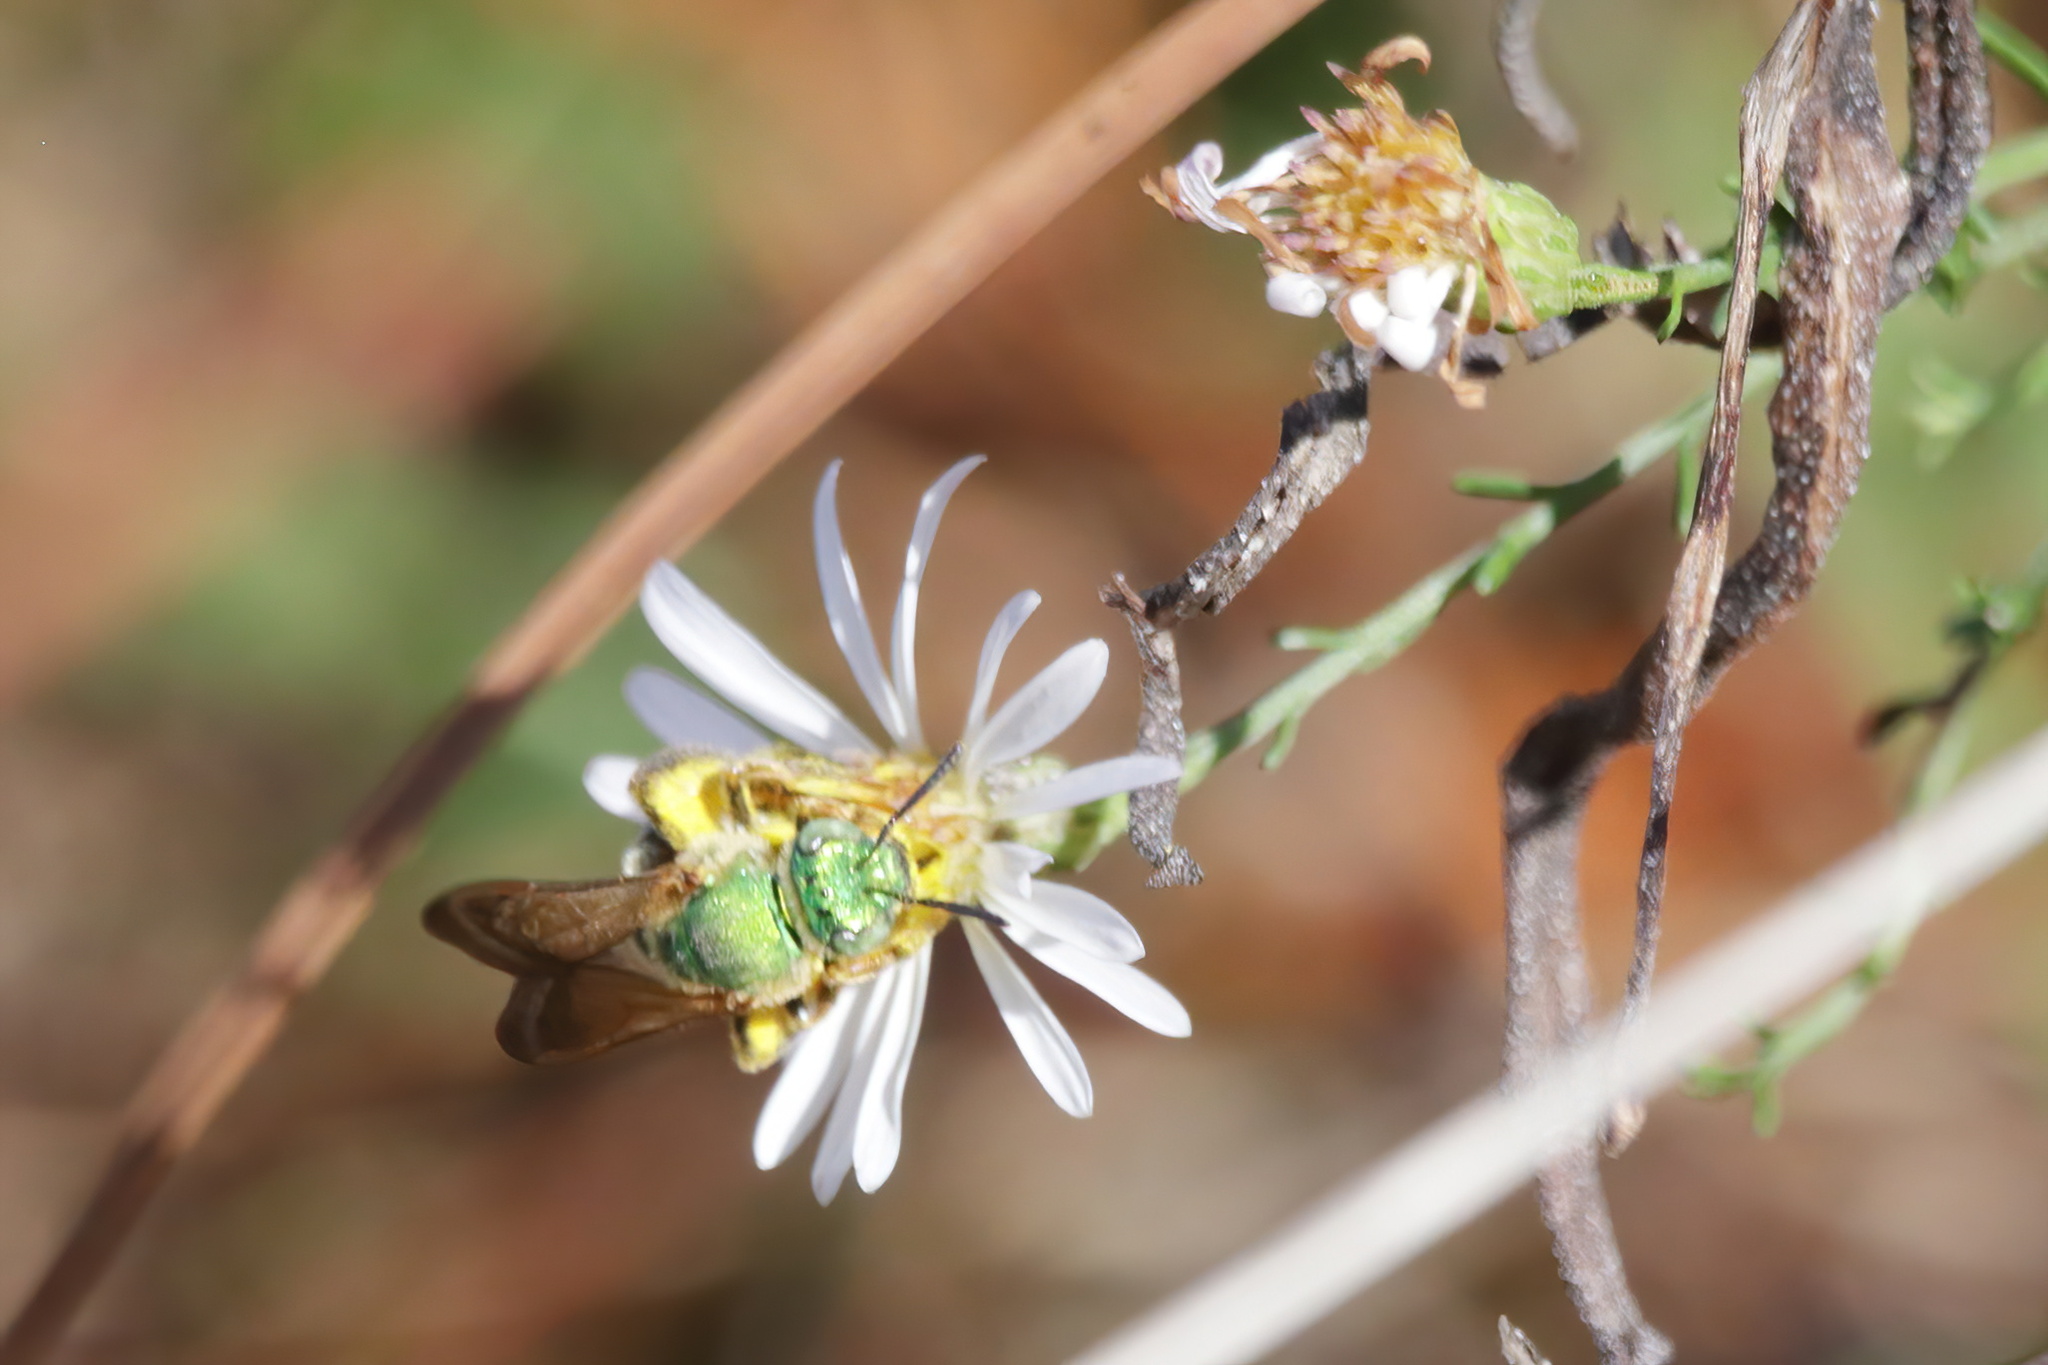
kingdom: Animalia
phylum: Arthropoda
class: Insecta
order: Hymenoptera
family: Halictidae
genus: Agapostemon
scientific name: Agapostemon splendens
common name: Brown-winged striped sweat bee
